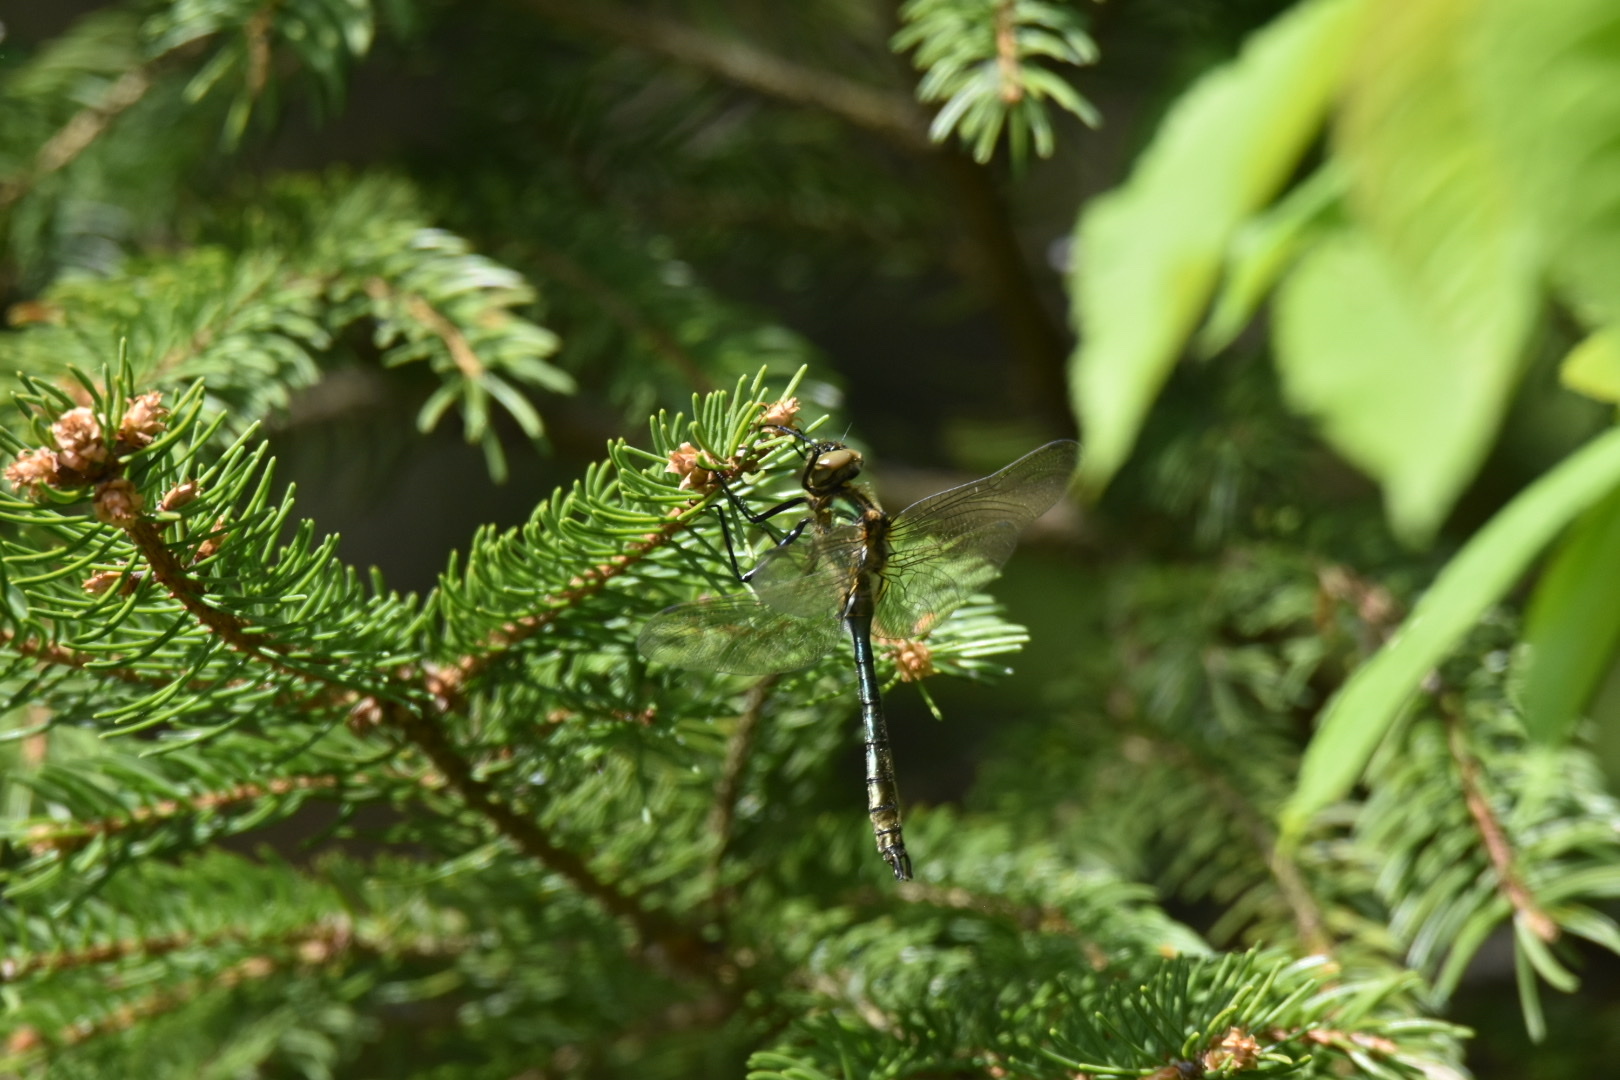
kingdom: Animalia
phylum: Arthropoda
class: Insecta
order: Odonata
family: Corduliidae
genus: Cordulia
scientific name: Cordulia aenea
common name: Downy emerald
